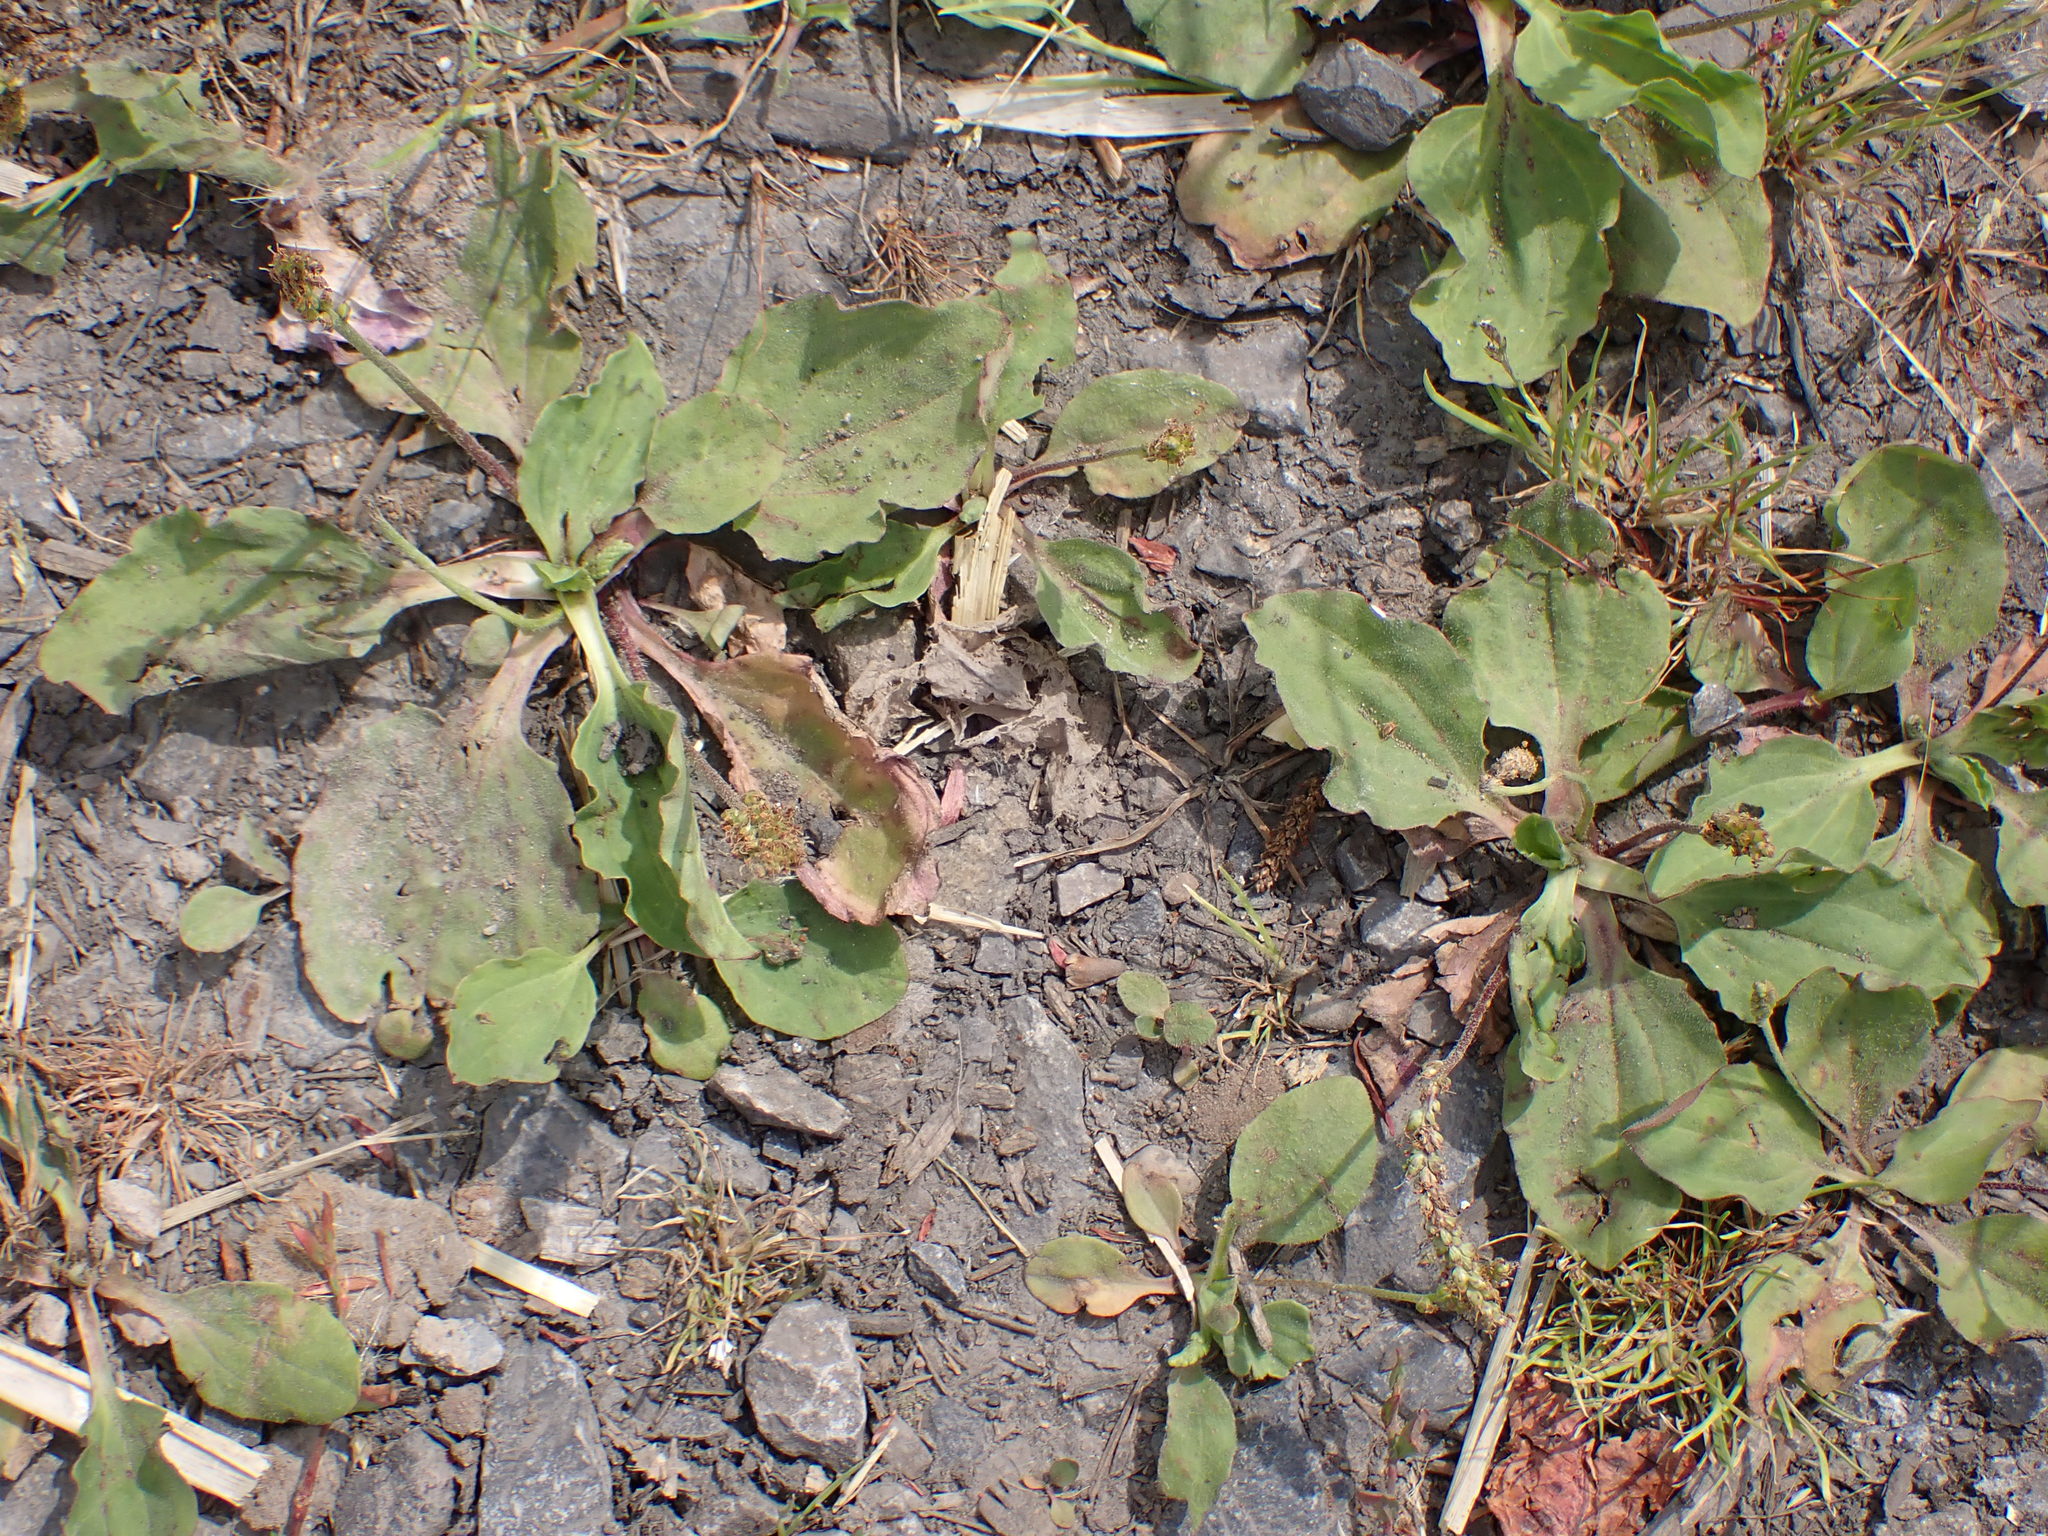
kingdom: Plantae
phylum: Tracheophyta
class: Magnoliopsida
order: Lamiales
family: Plantaginaceae
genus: Plantago
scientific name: Plantago major
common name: Common plantain
